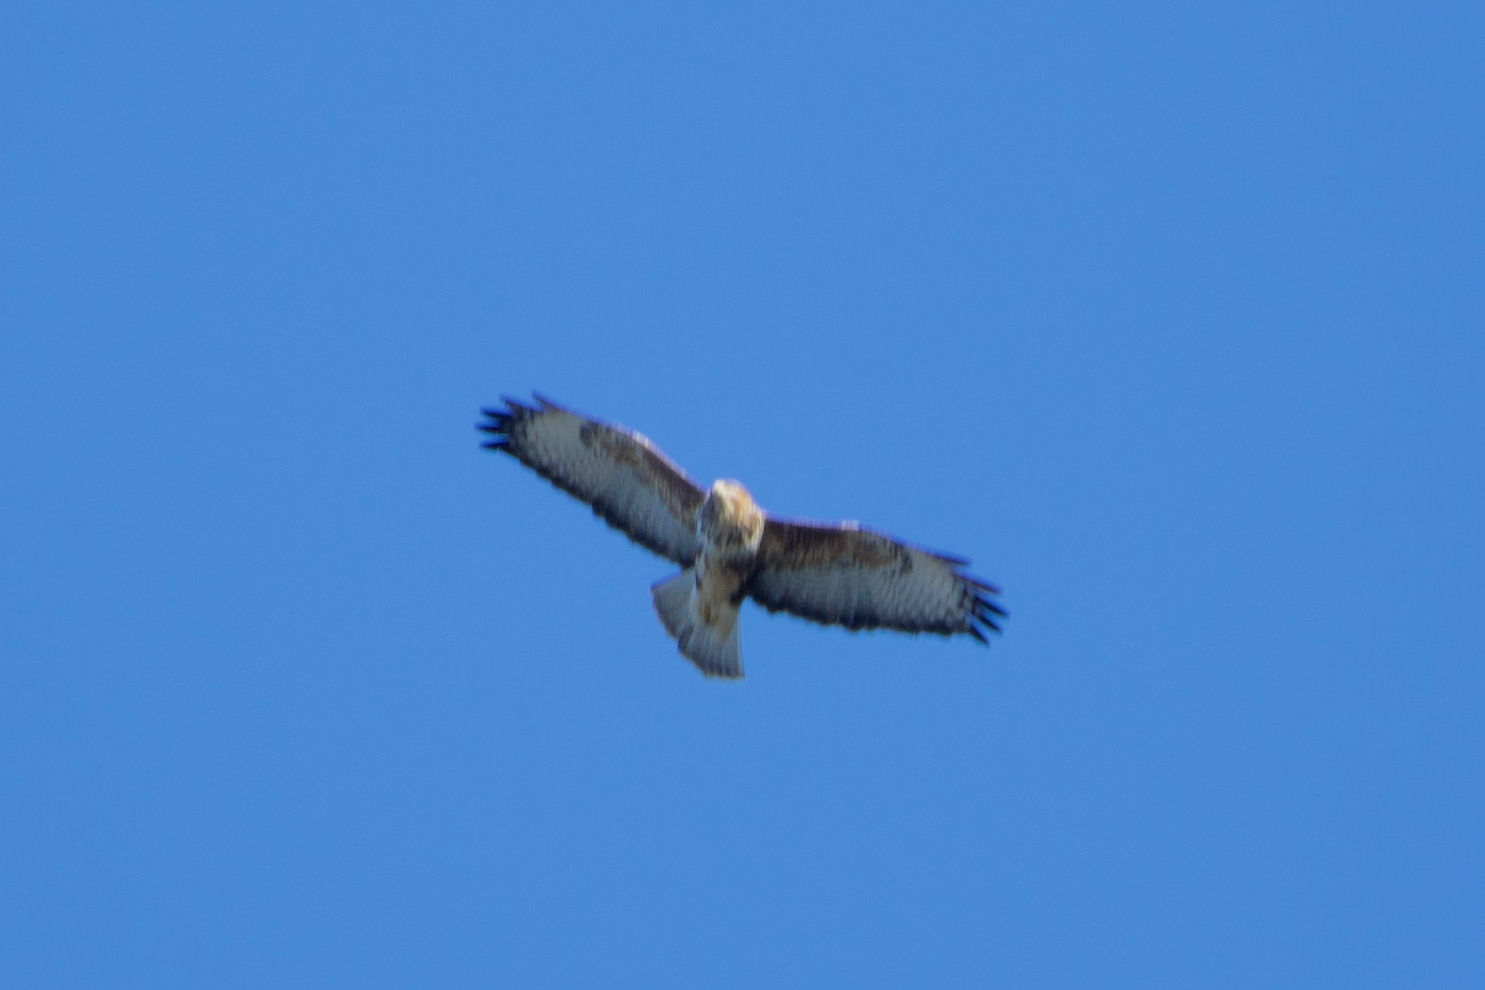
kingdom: Animalia
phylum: Chordata
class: Aves
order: Accipitriformes
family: Accipitridae
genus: Buteo
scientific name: Buteo buteo
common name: Common buzzard
